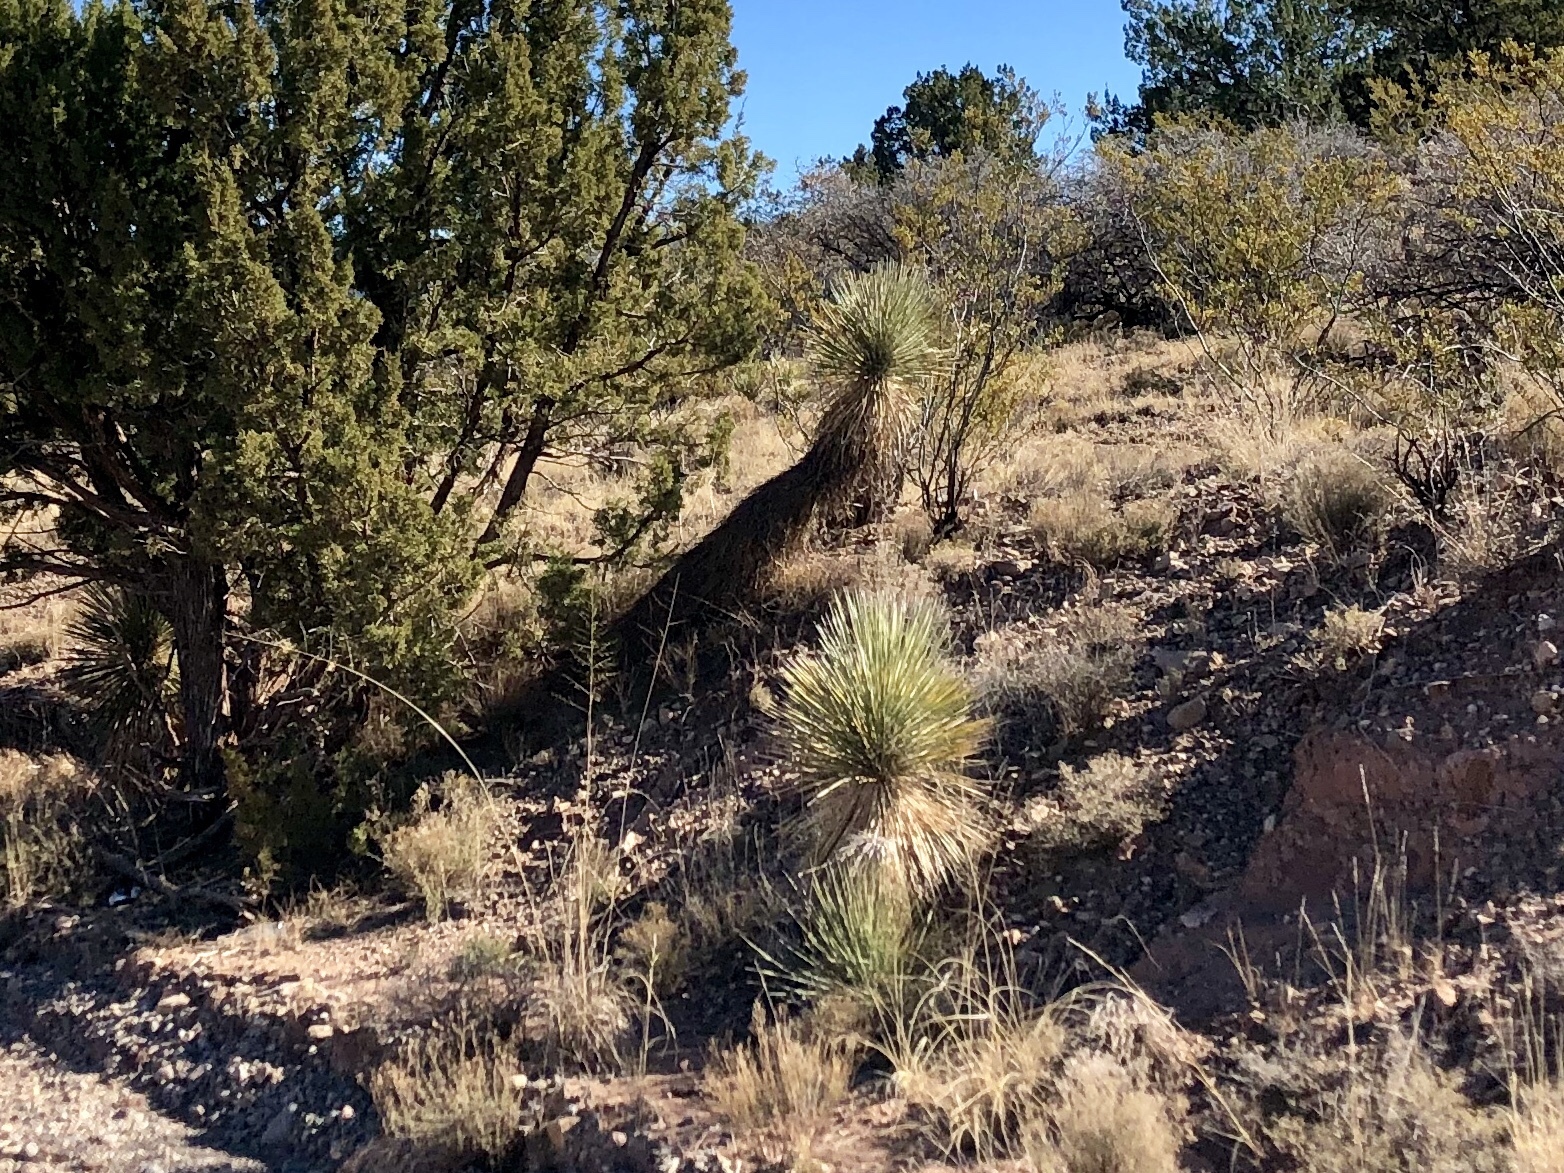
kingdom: Plantae
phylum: Tracheophyta
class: Liliopsida
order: Asparagales
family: Asparagaceae
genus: Yucca
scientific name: Yucca elata
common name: Palmella
